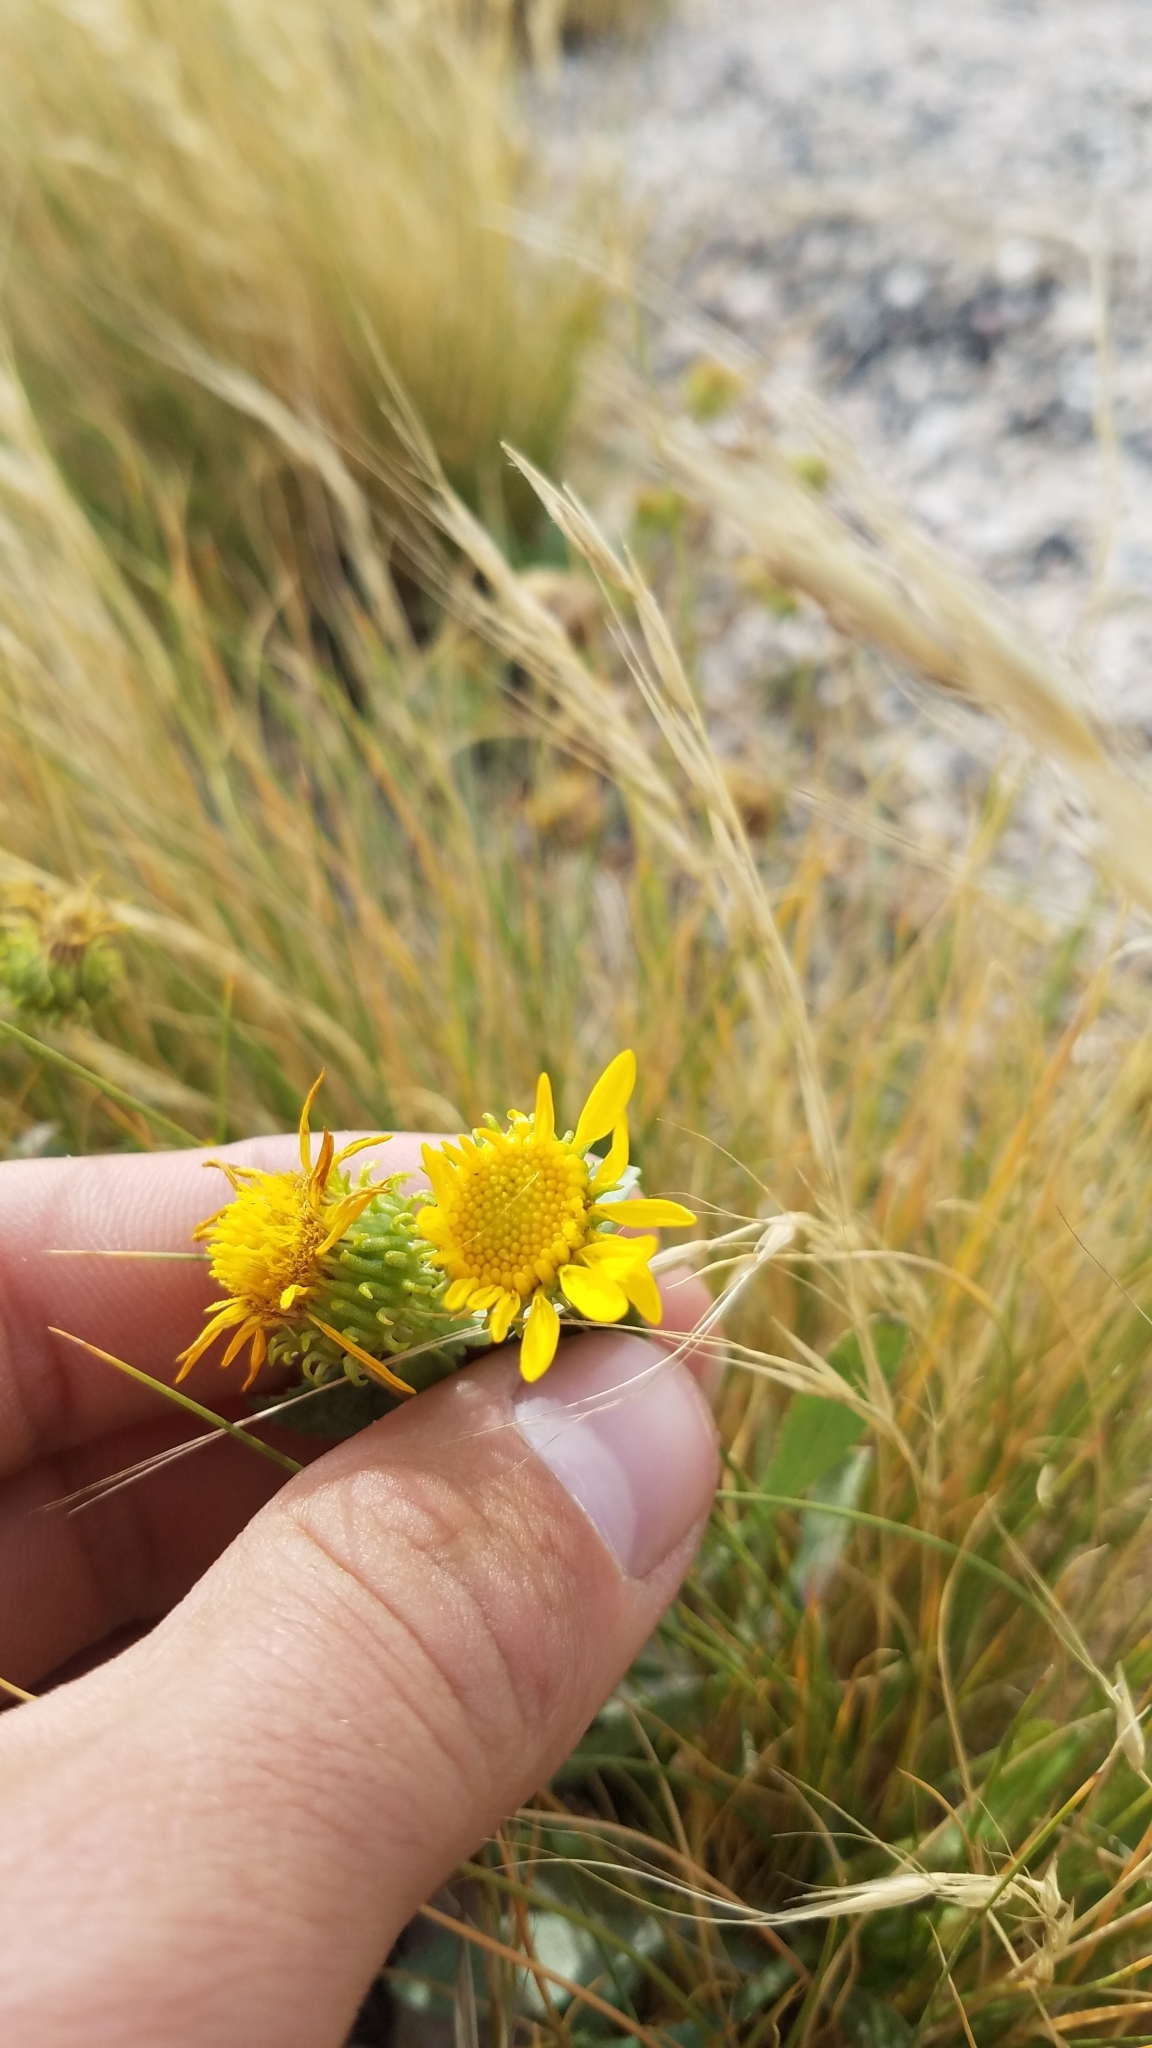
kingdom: Plantae
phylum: Tracheophyta
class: Magnoliopsida
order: Asterales
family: Asteraceae
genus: Grindelia
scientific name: Grindelia squarrosa
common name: Curly-cup gumweed
